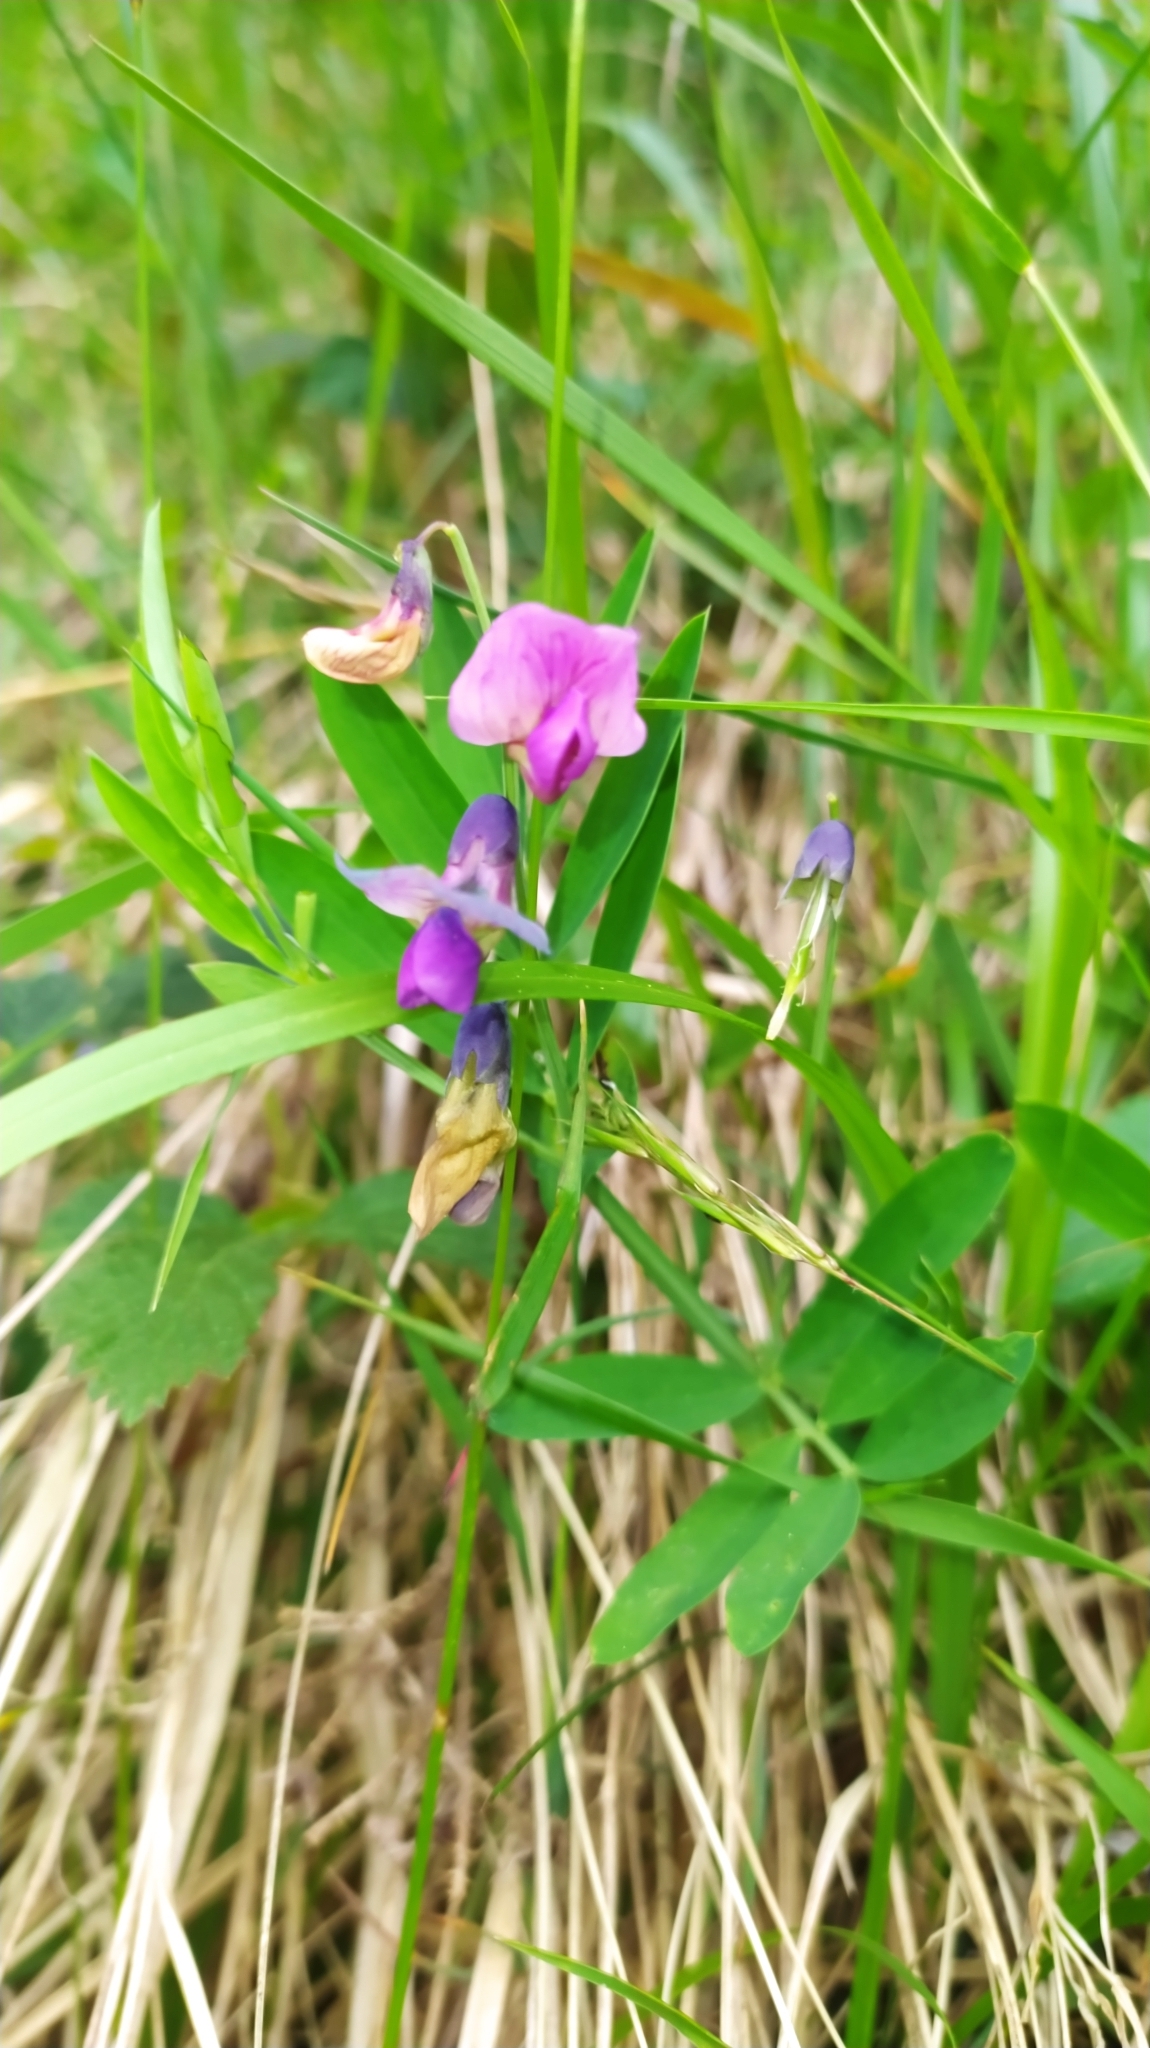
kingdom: Plantae
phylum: Tracheophyta
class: Magnoliopsida
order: Fabales
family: Fabaceae
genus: Lathyrus
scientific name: Lathyrus linifolius
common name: Bitter-vetch
